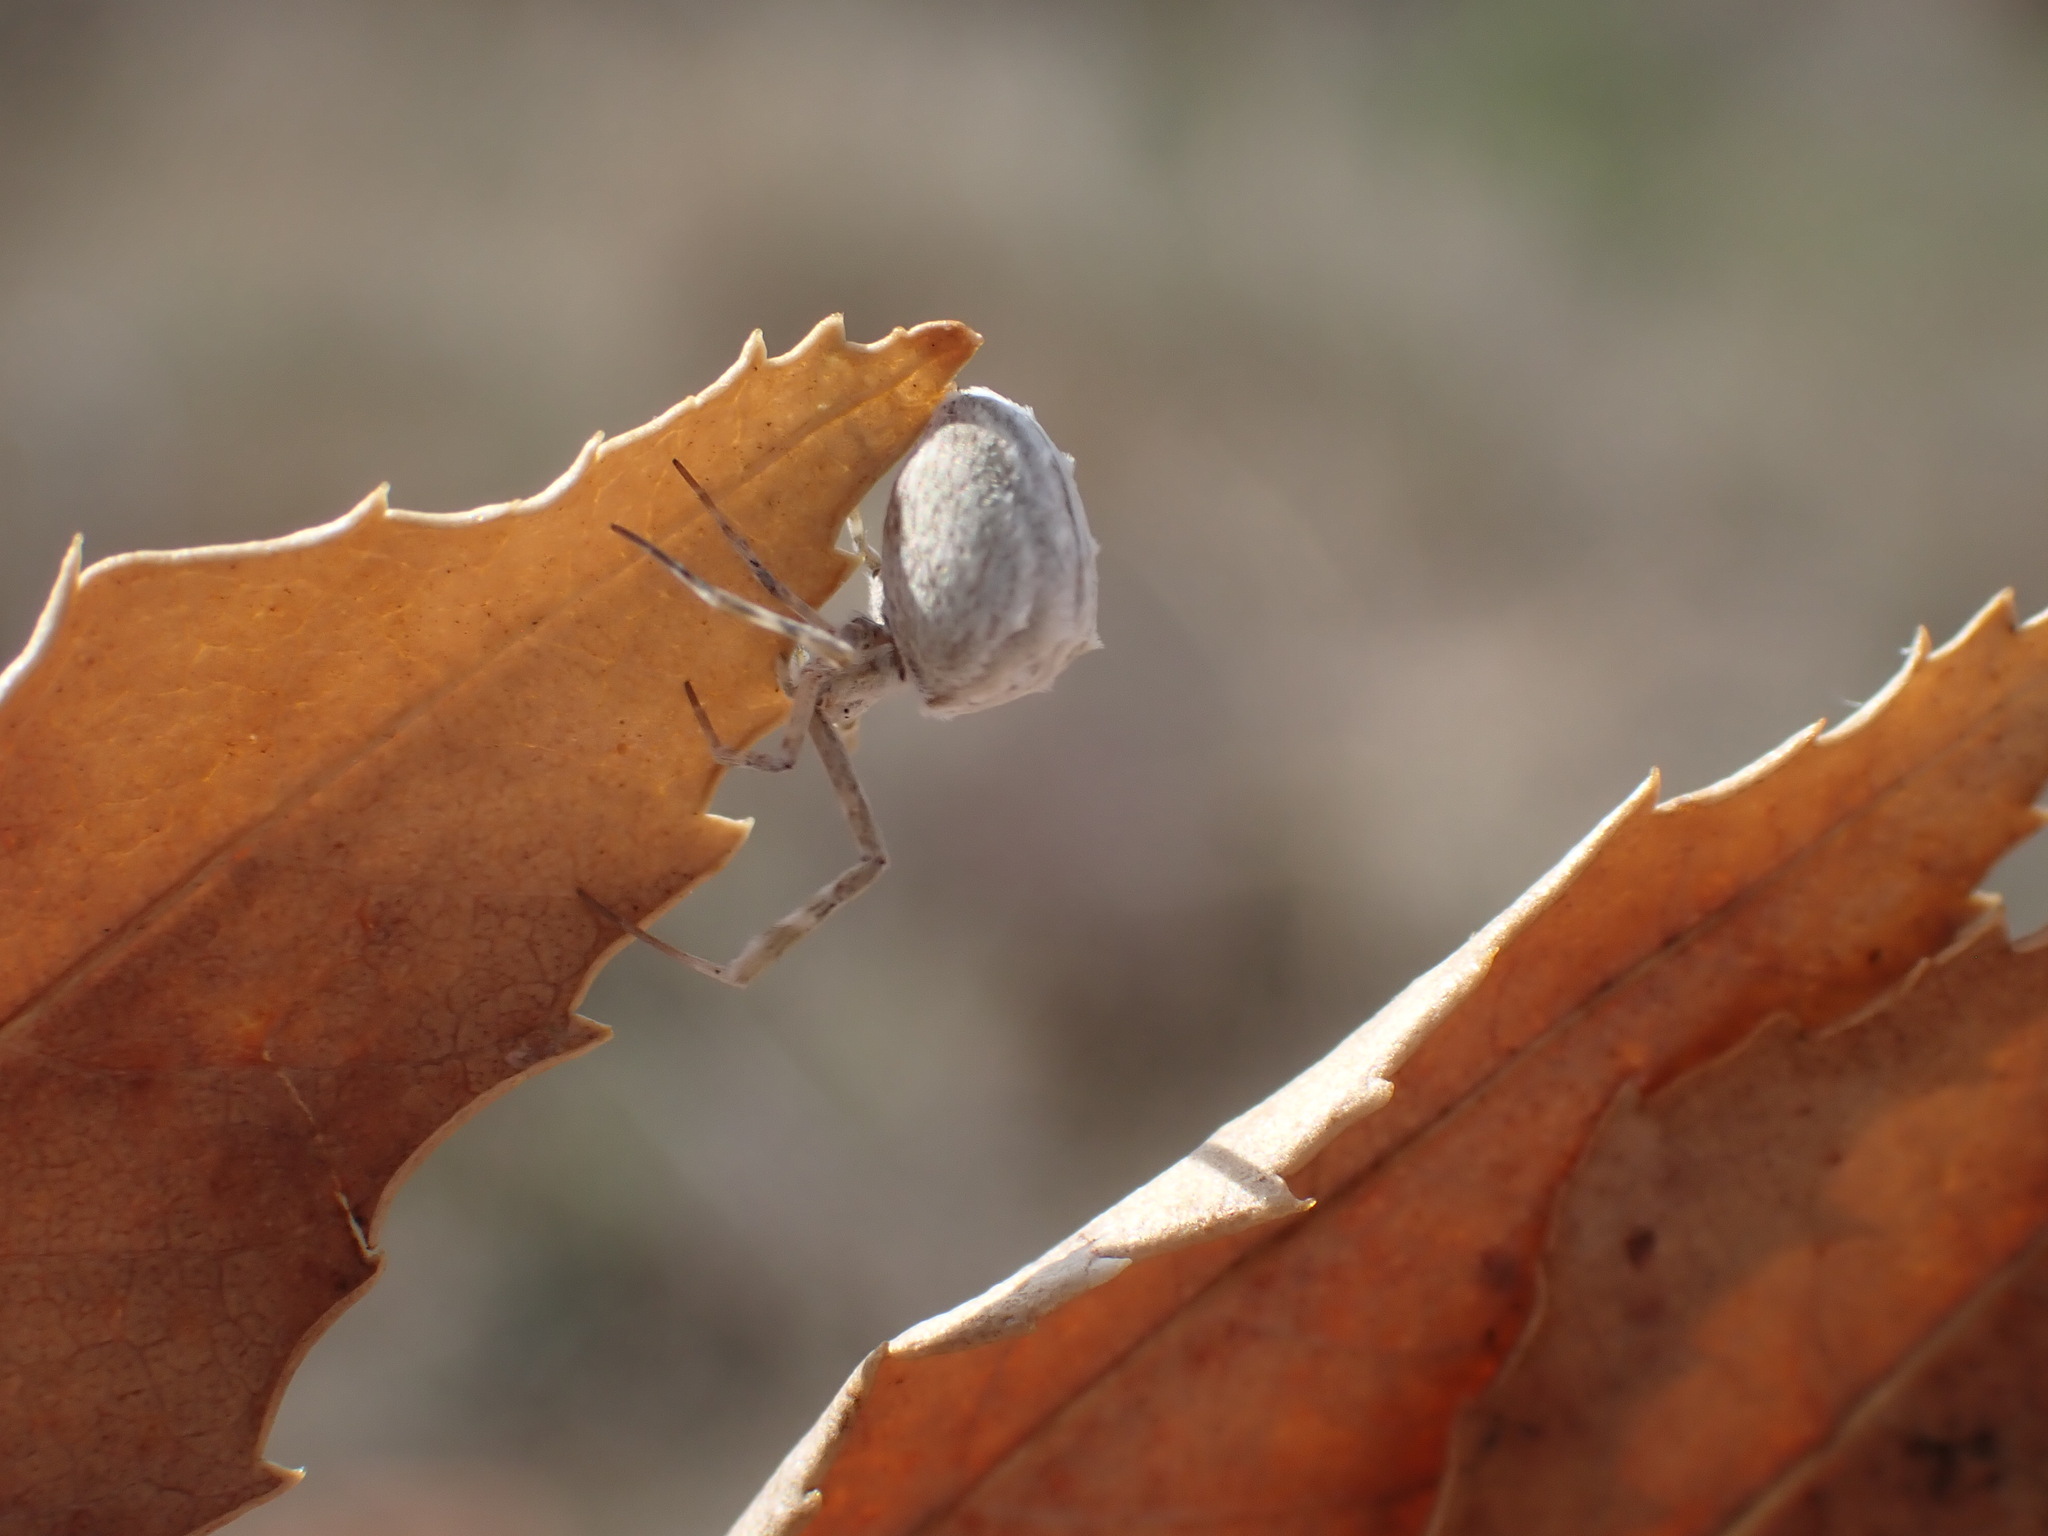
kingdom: Animalia
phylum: Arthropoda
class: Arachnida
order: Araneae
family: Uloboridae
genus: Uloborus
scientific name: Uloborus walckenaerius
